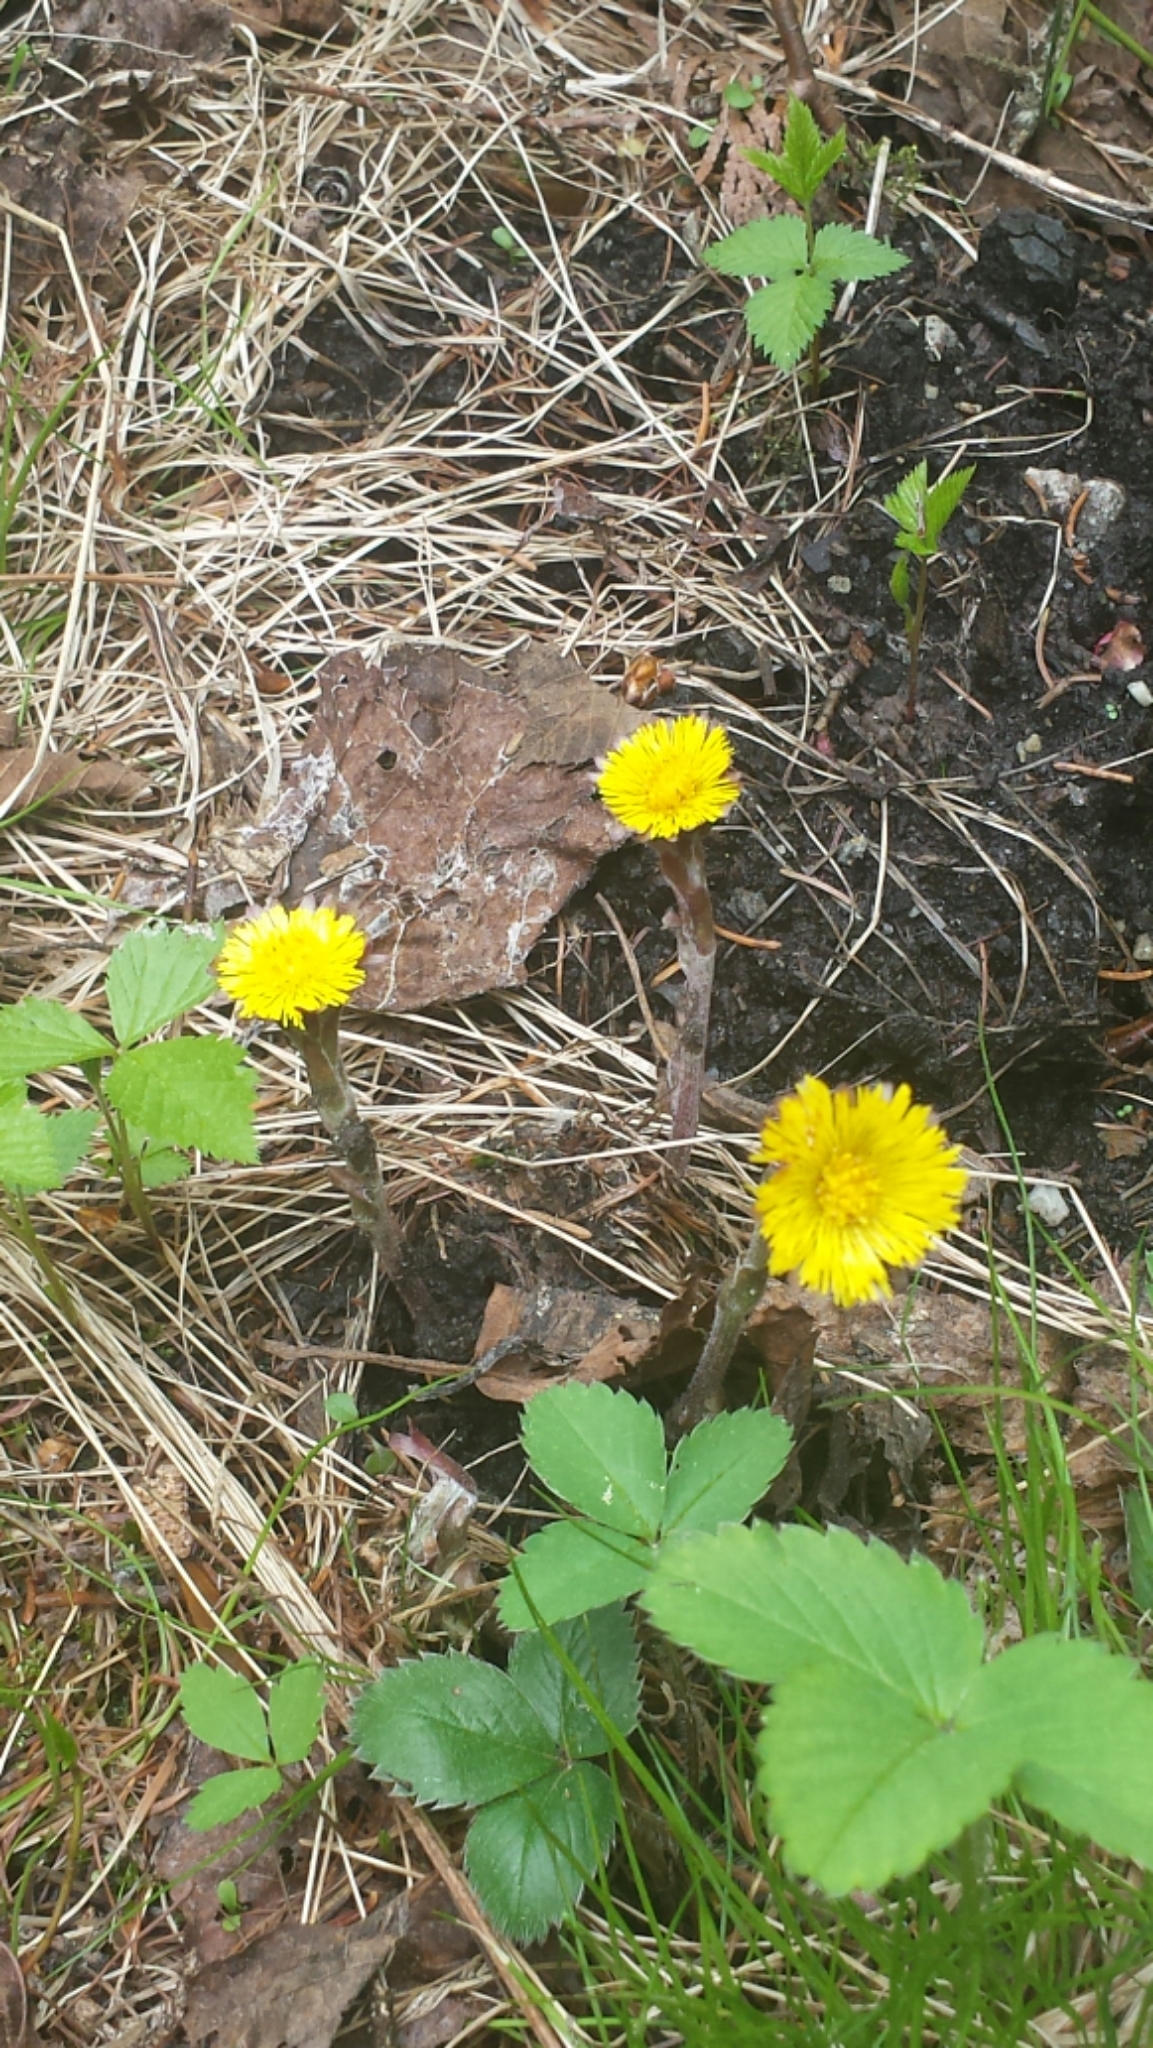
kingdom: Plantae
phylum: Tracheophyta
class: Magnoliopsida
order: Asterales
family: Asteraceae
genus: Tussilago
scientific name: Tussilago farfara
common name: Coltsfoot
